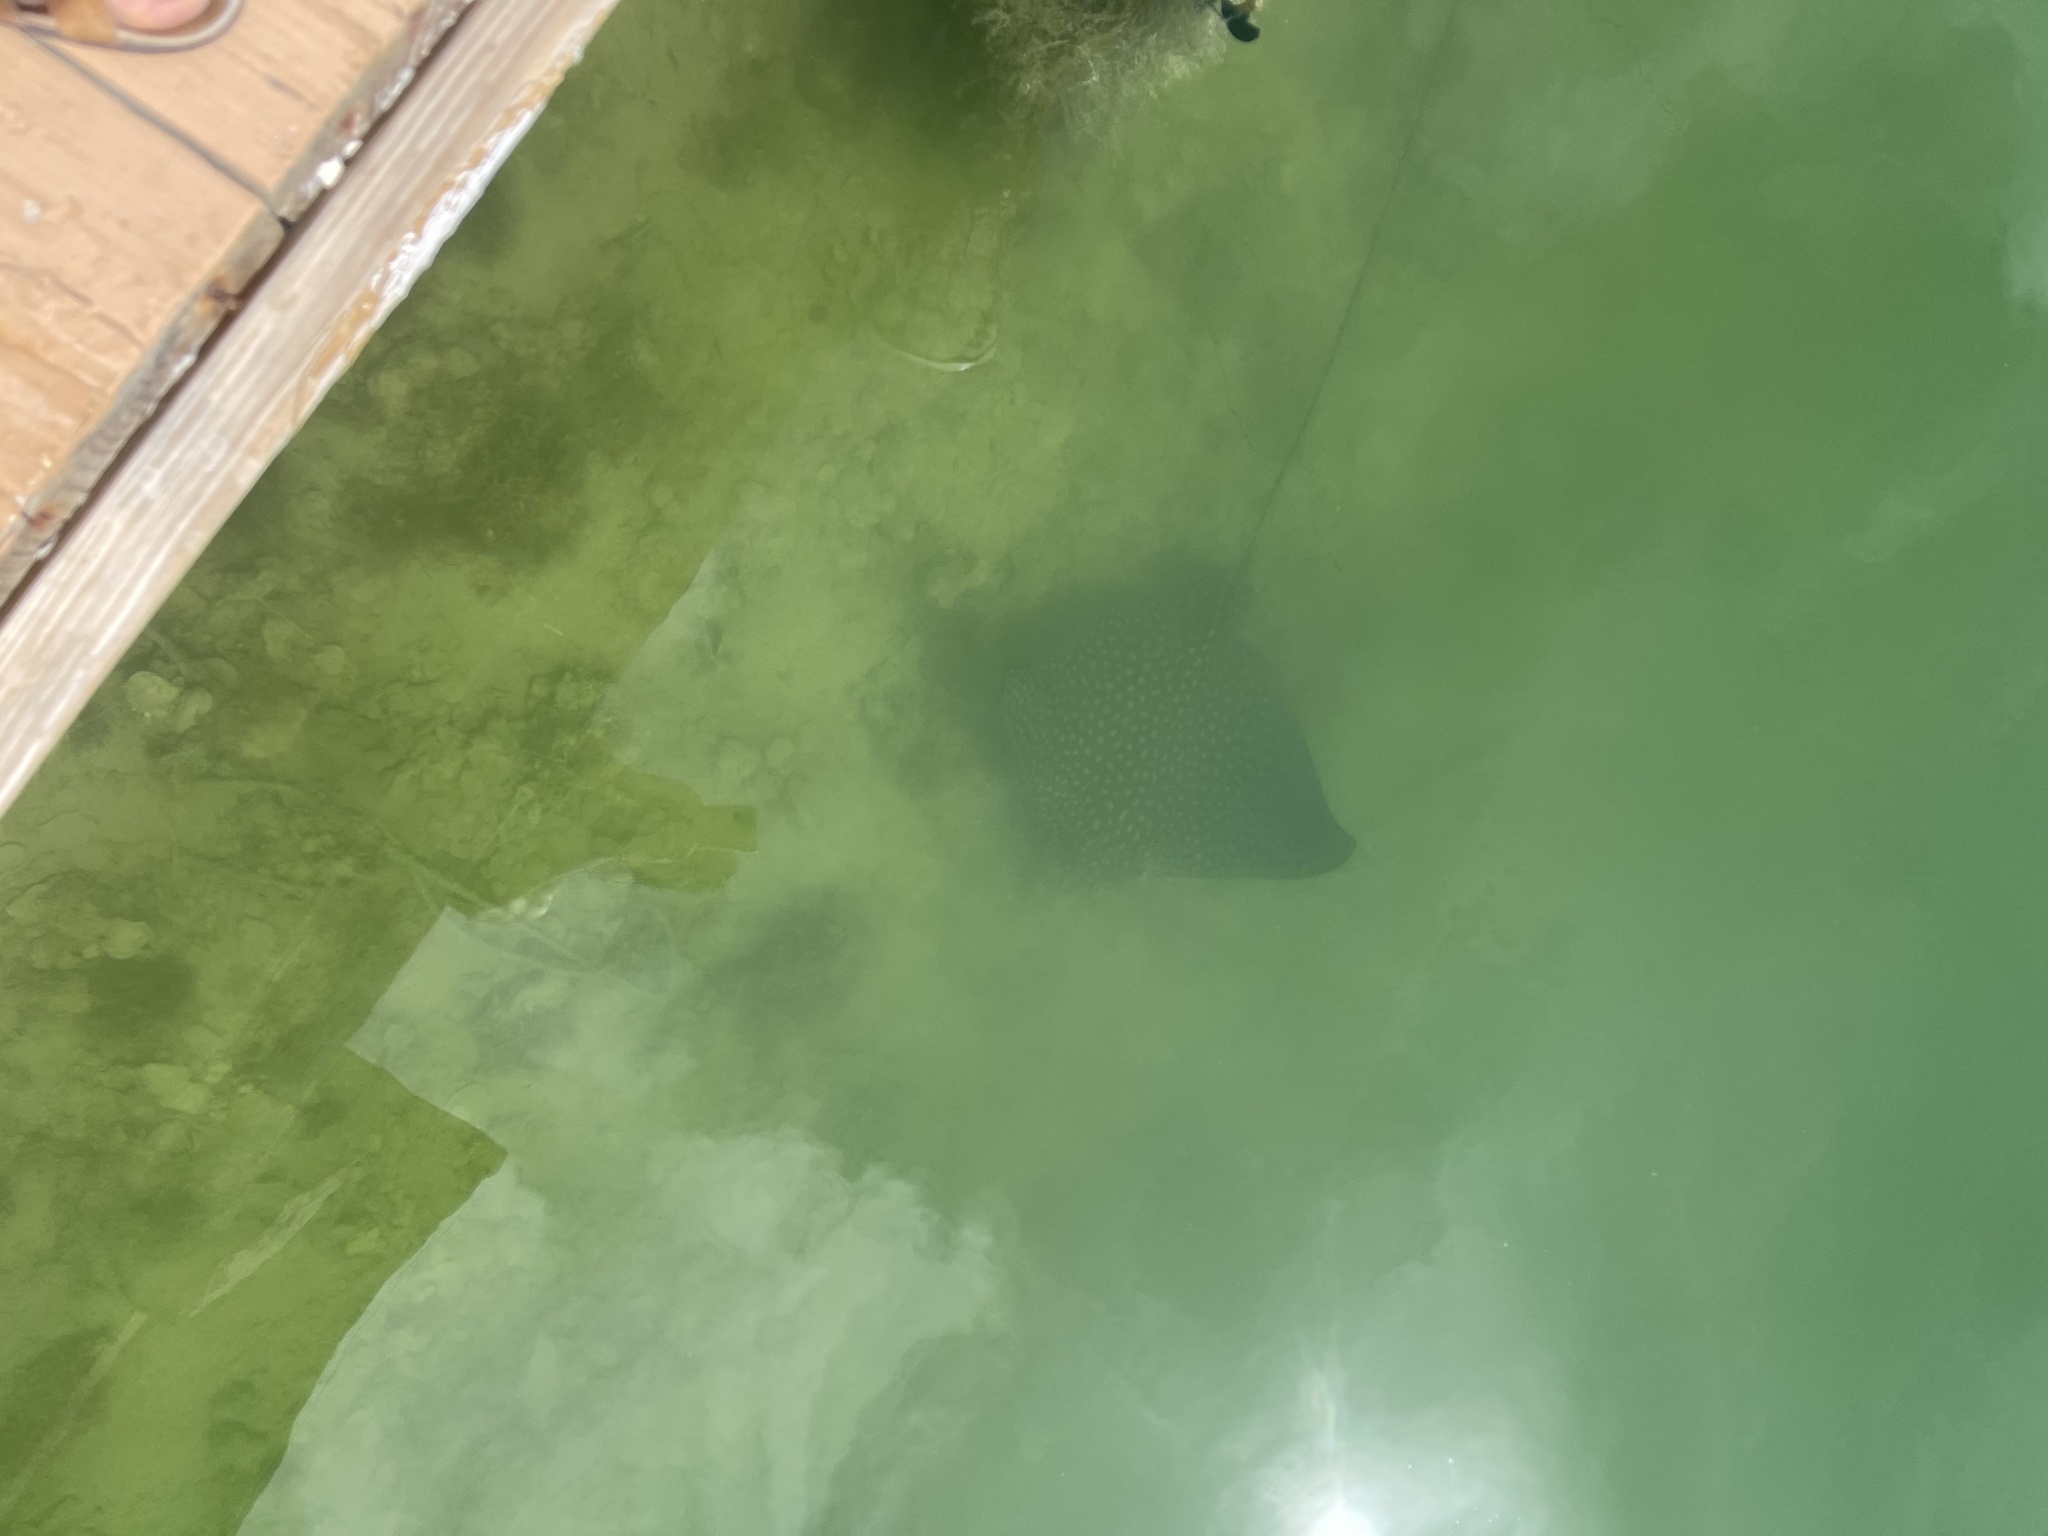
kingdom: Animalia
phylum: Chordata
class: Elasmobranchii
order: Myliobatiformes
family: Myliobatidae
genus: Aetobatus
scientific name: Aetobatus narinari
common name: Spotted eagle ray
